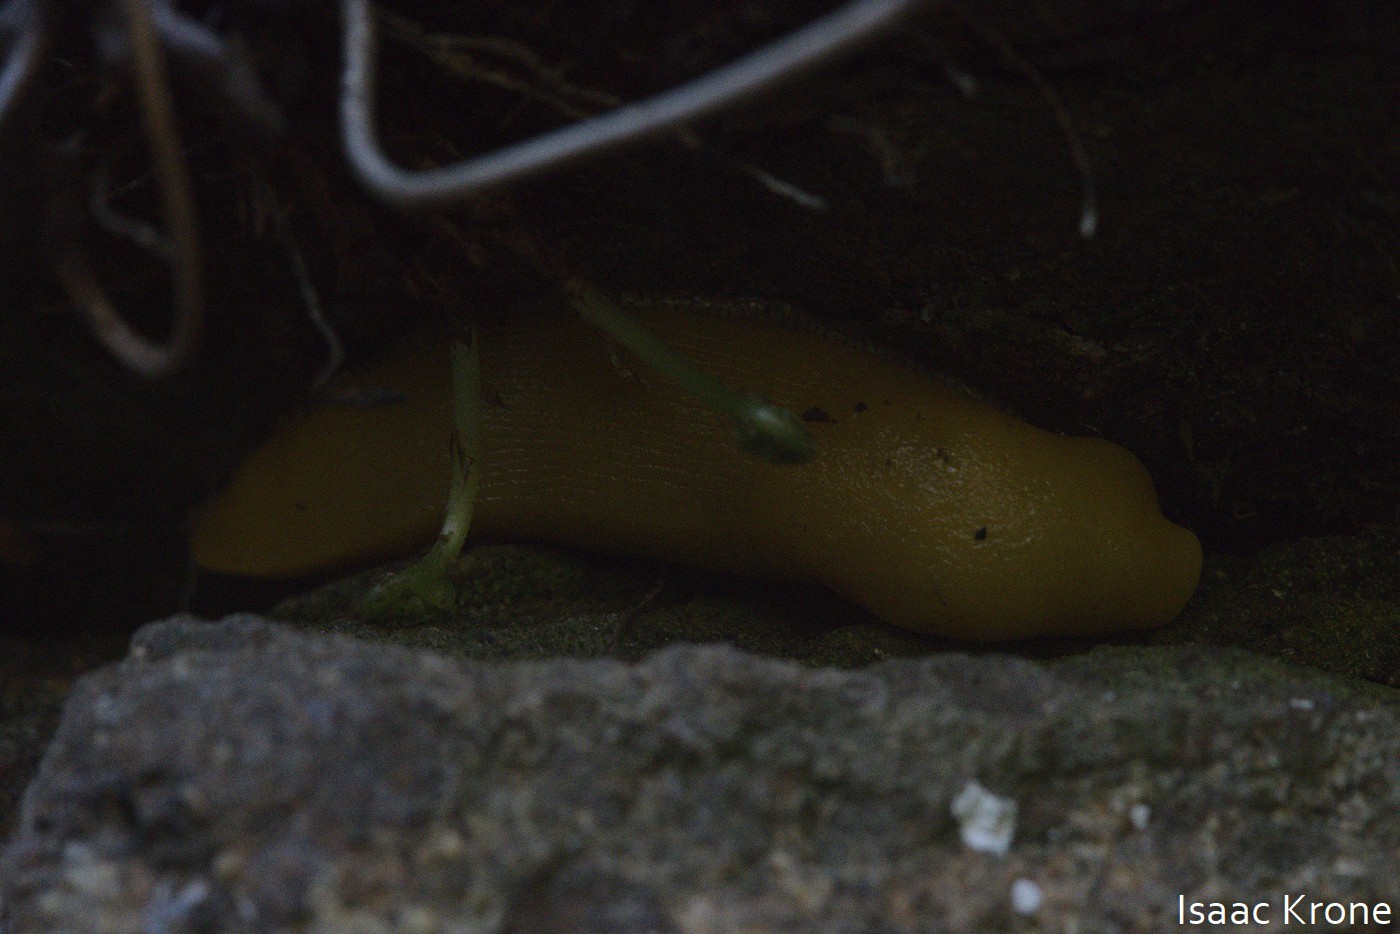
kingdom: Animalia
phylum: Mollusca
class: Gastropoda
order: Stylommatophora
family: Ariolimacidae
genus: Ariolimax
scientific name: Ariolimax stramineus
